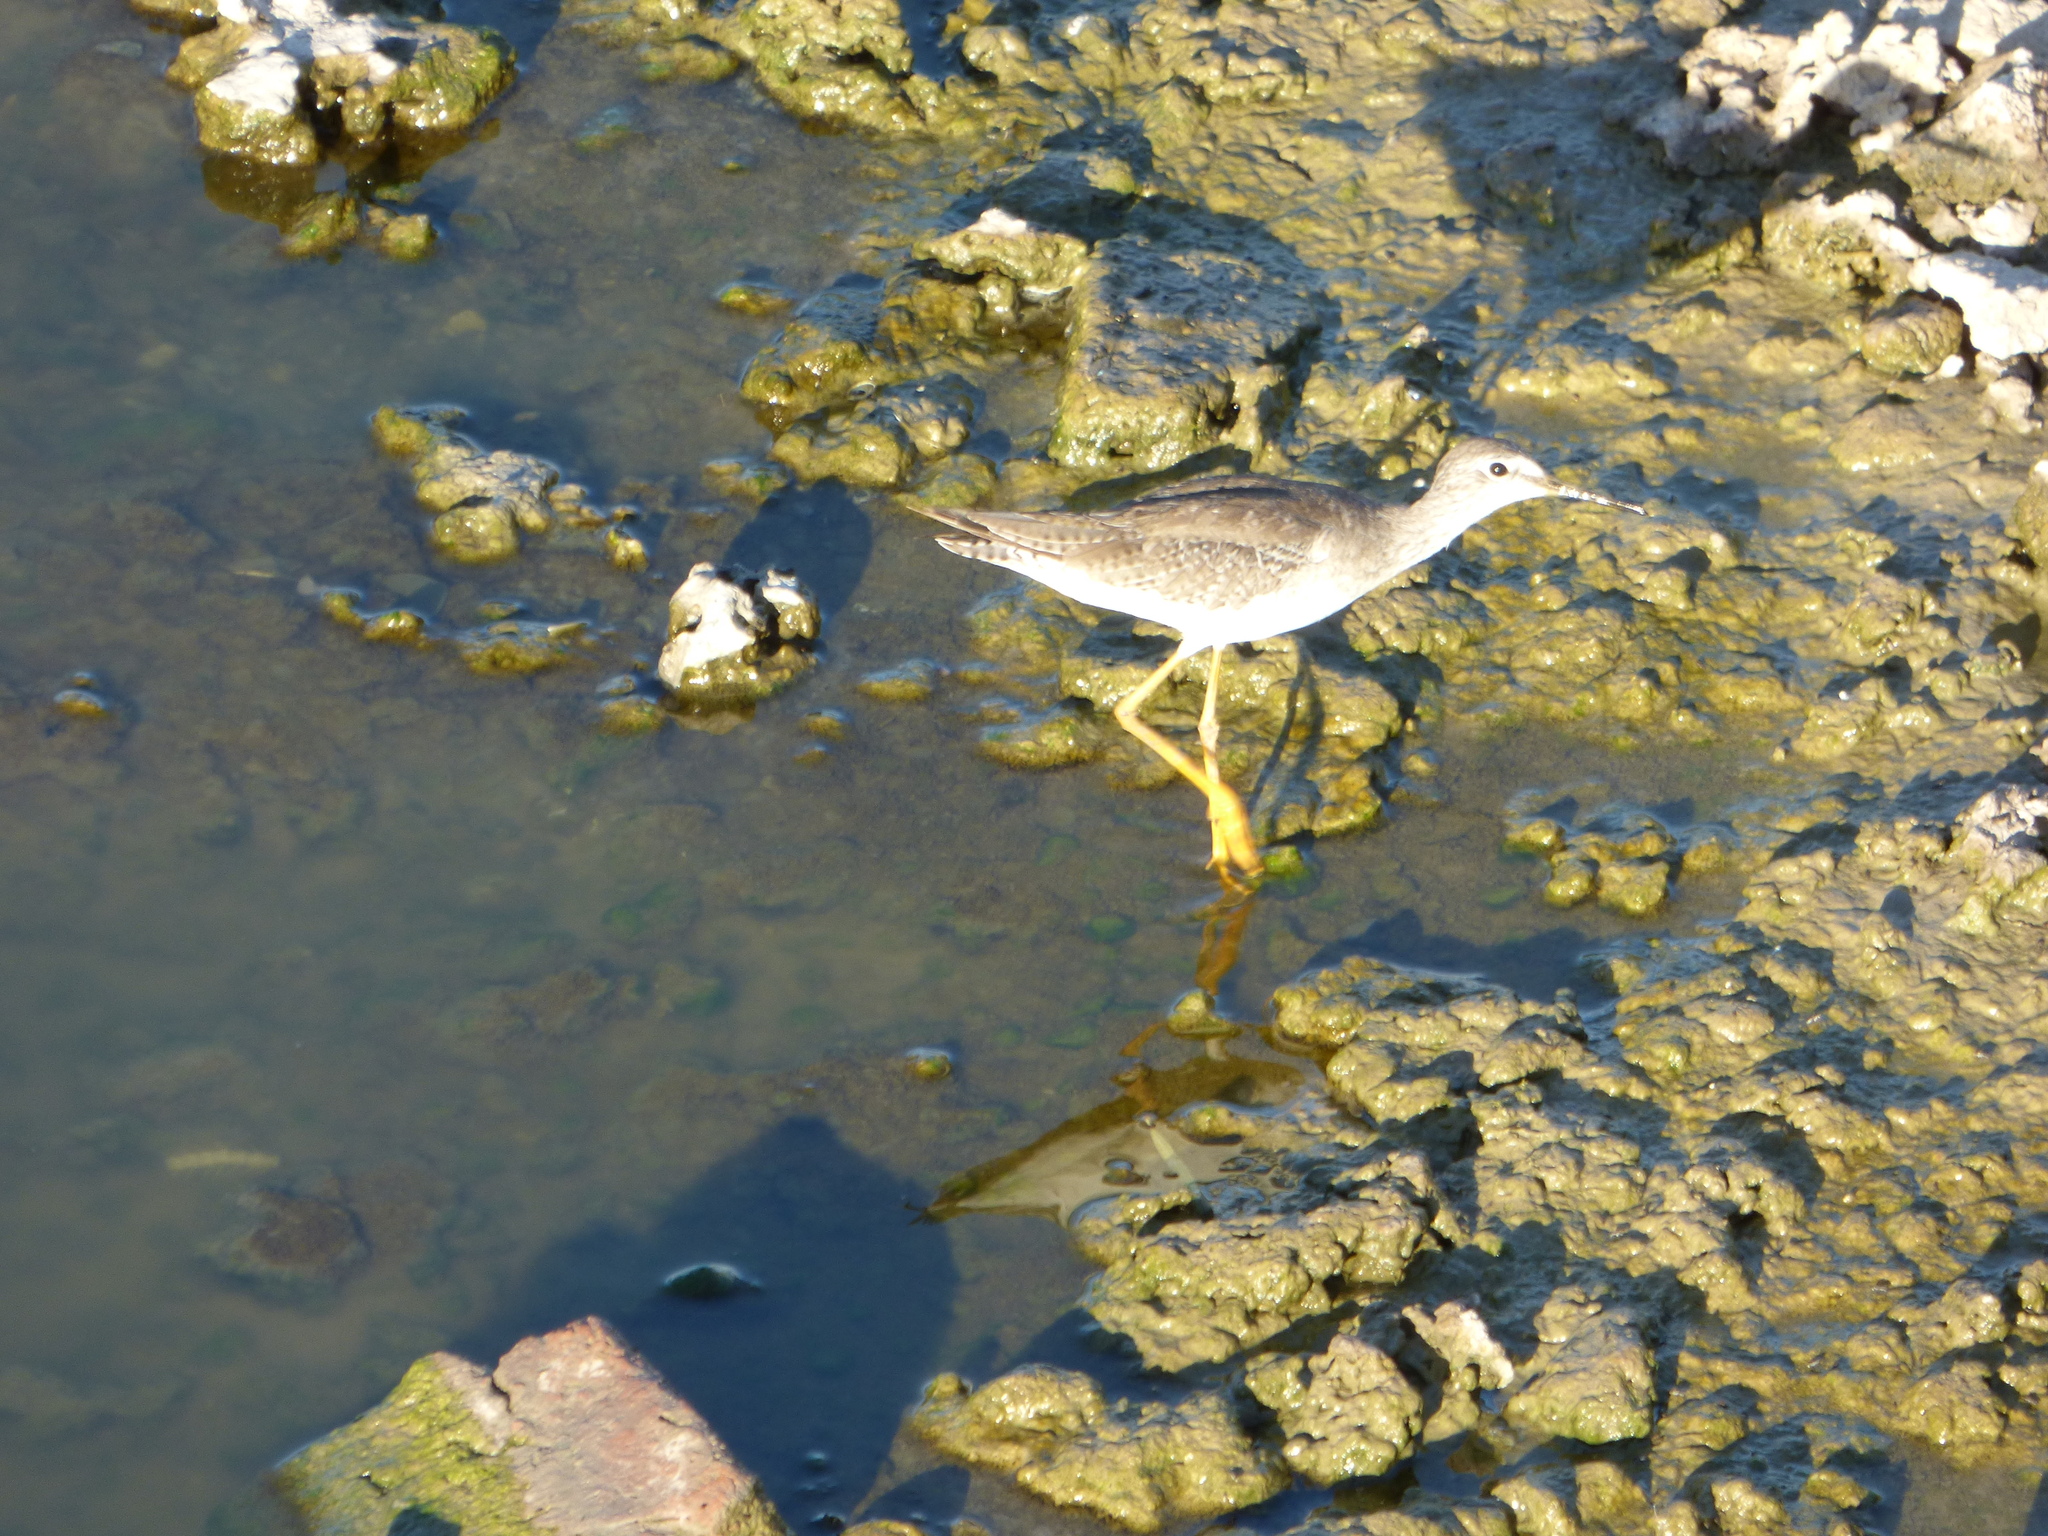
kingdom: Animalia
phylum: Chordata
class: Aves
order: Charadriiformes
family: Scolopacidae
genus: Tringa
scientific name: Tringa flavipes
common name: Lesser yellowlegs
